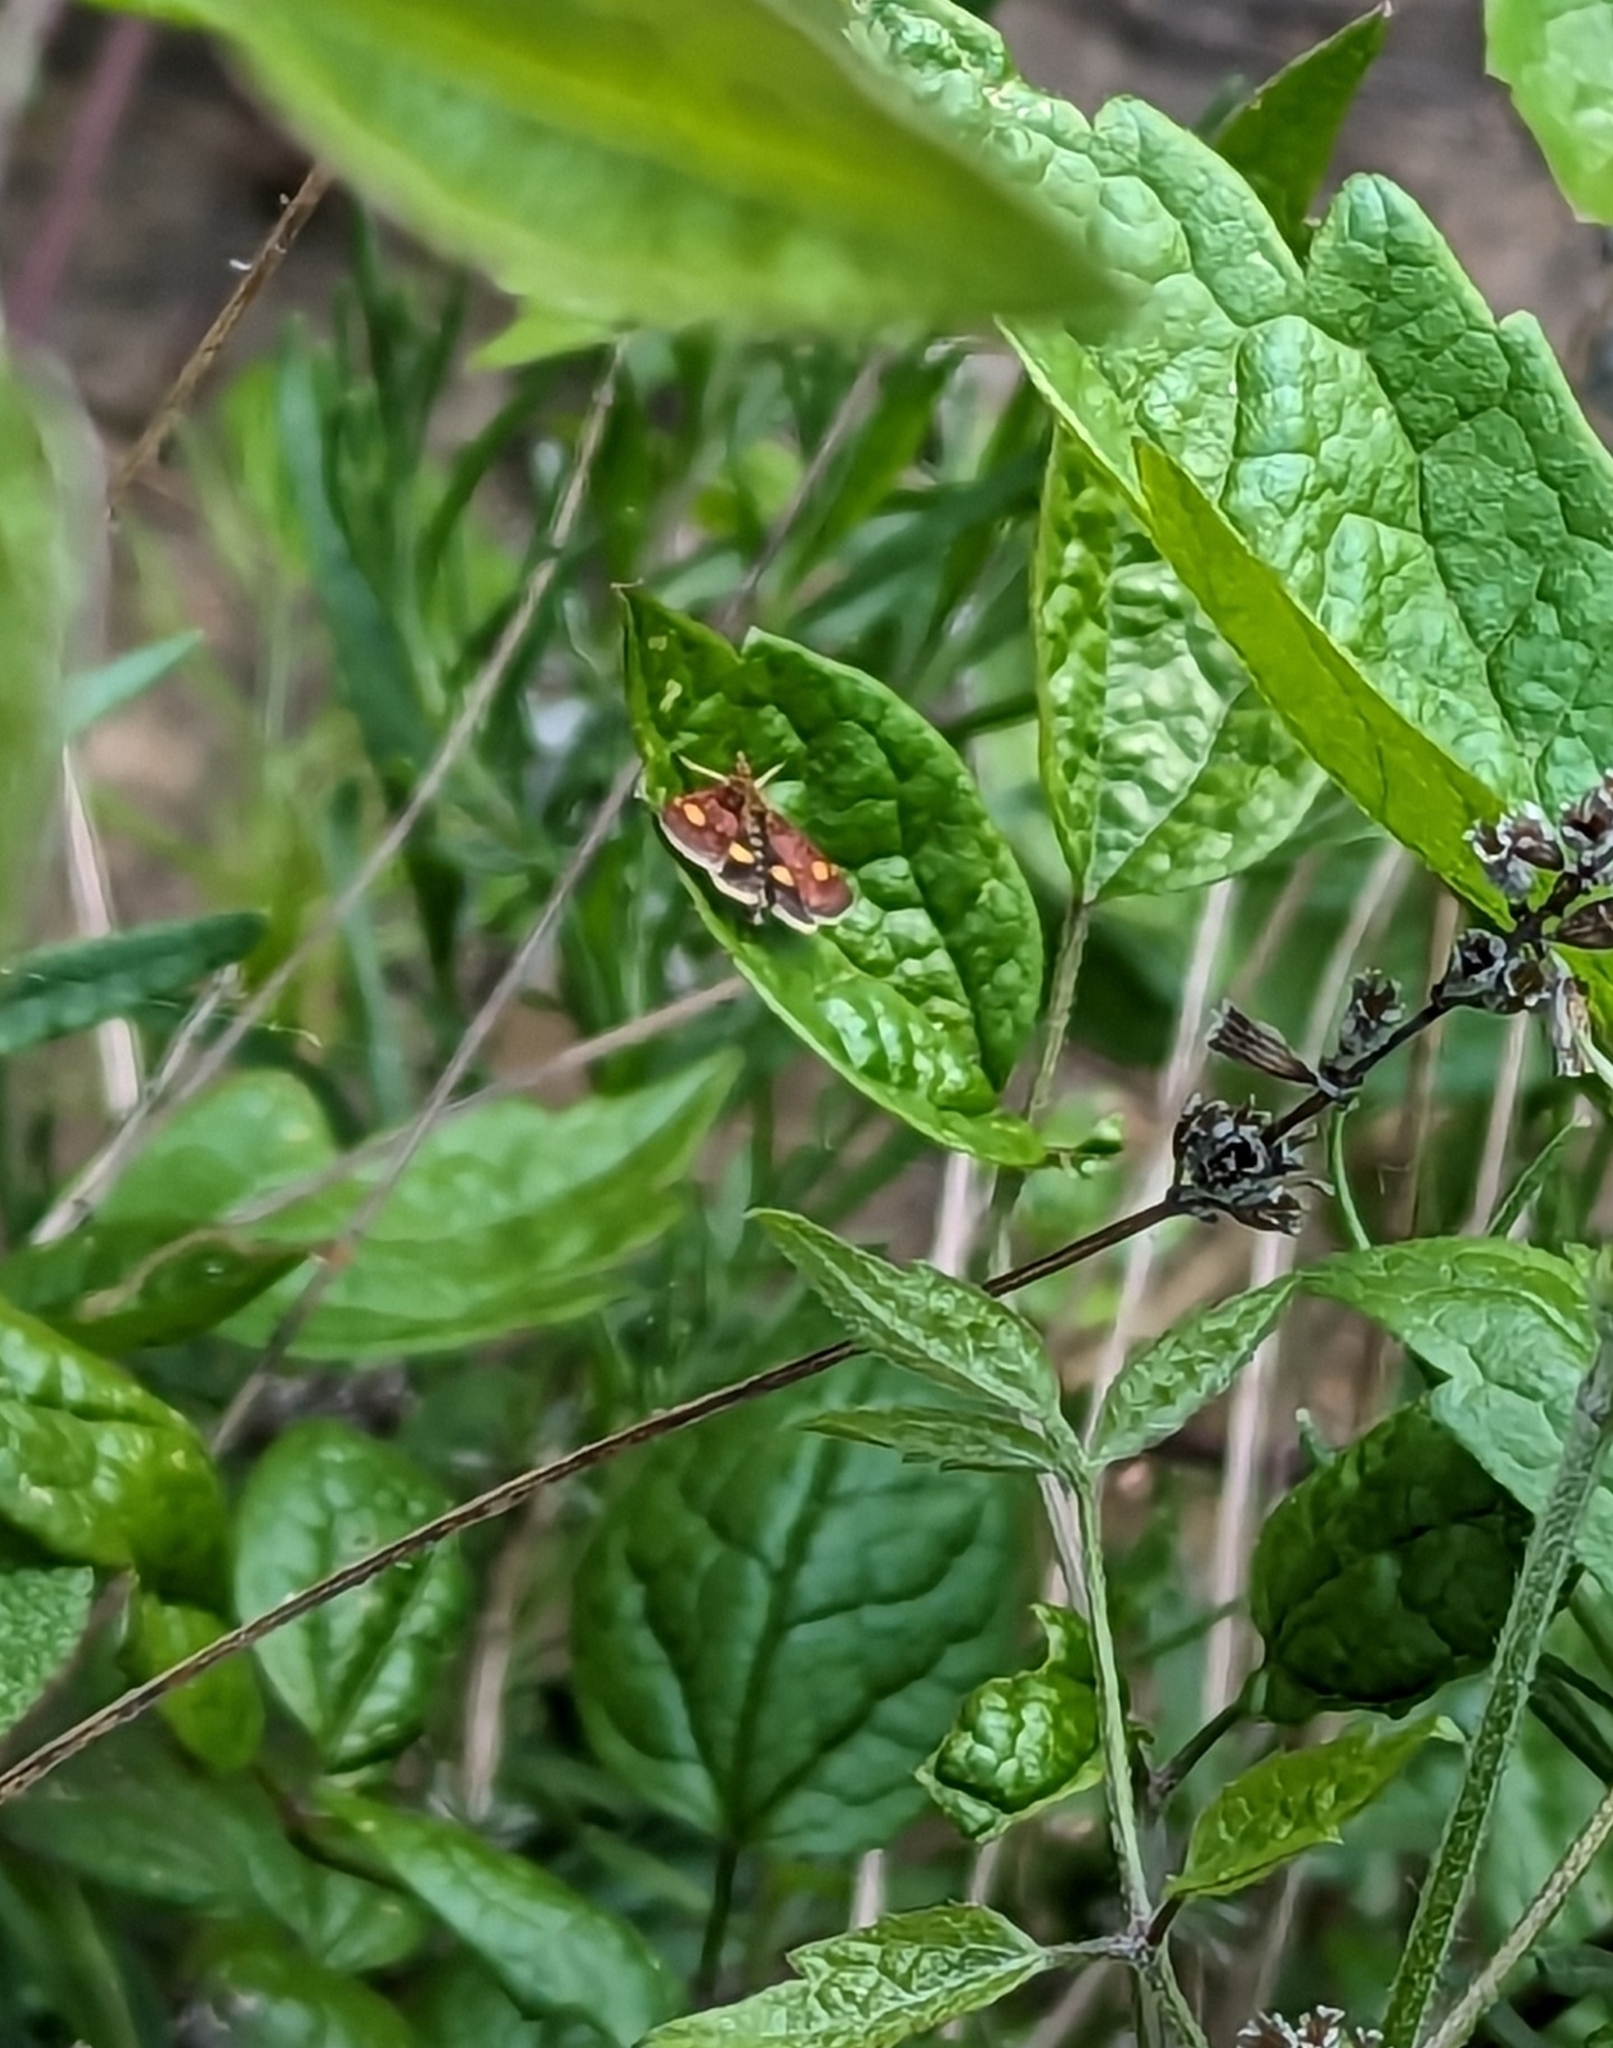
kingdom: Animalia
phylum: Arthropoda
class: Insecta
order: Lepidoptera
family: Crambidae
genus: Pyrausta
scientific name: Pyrausta aurata
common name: Small purple & gold
